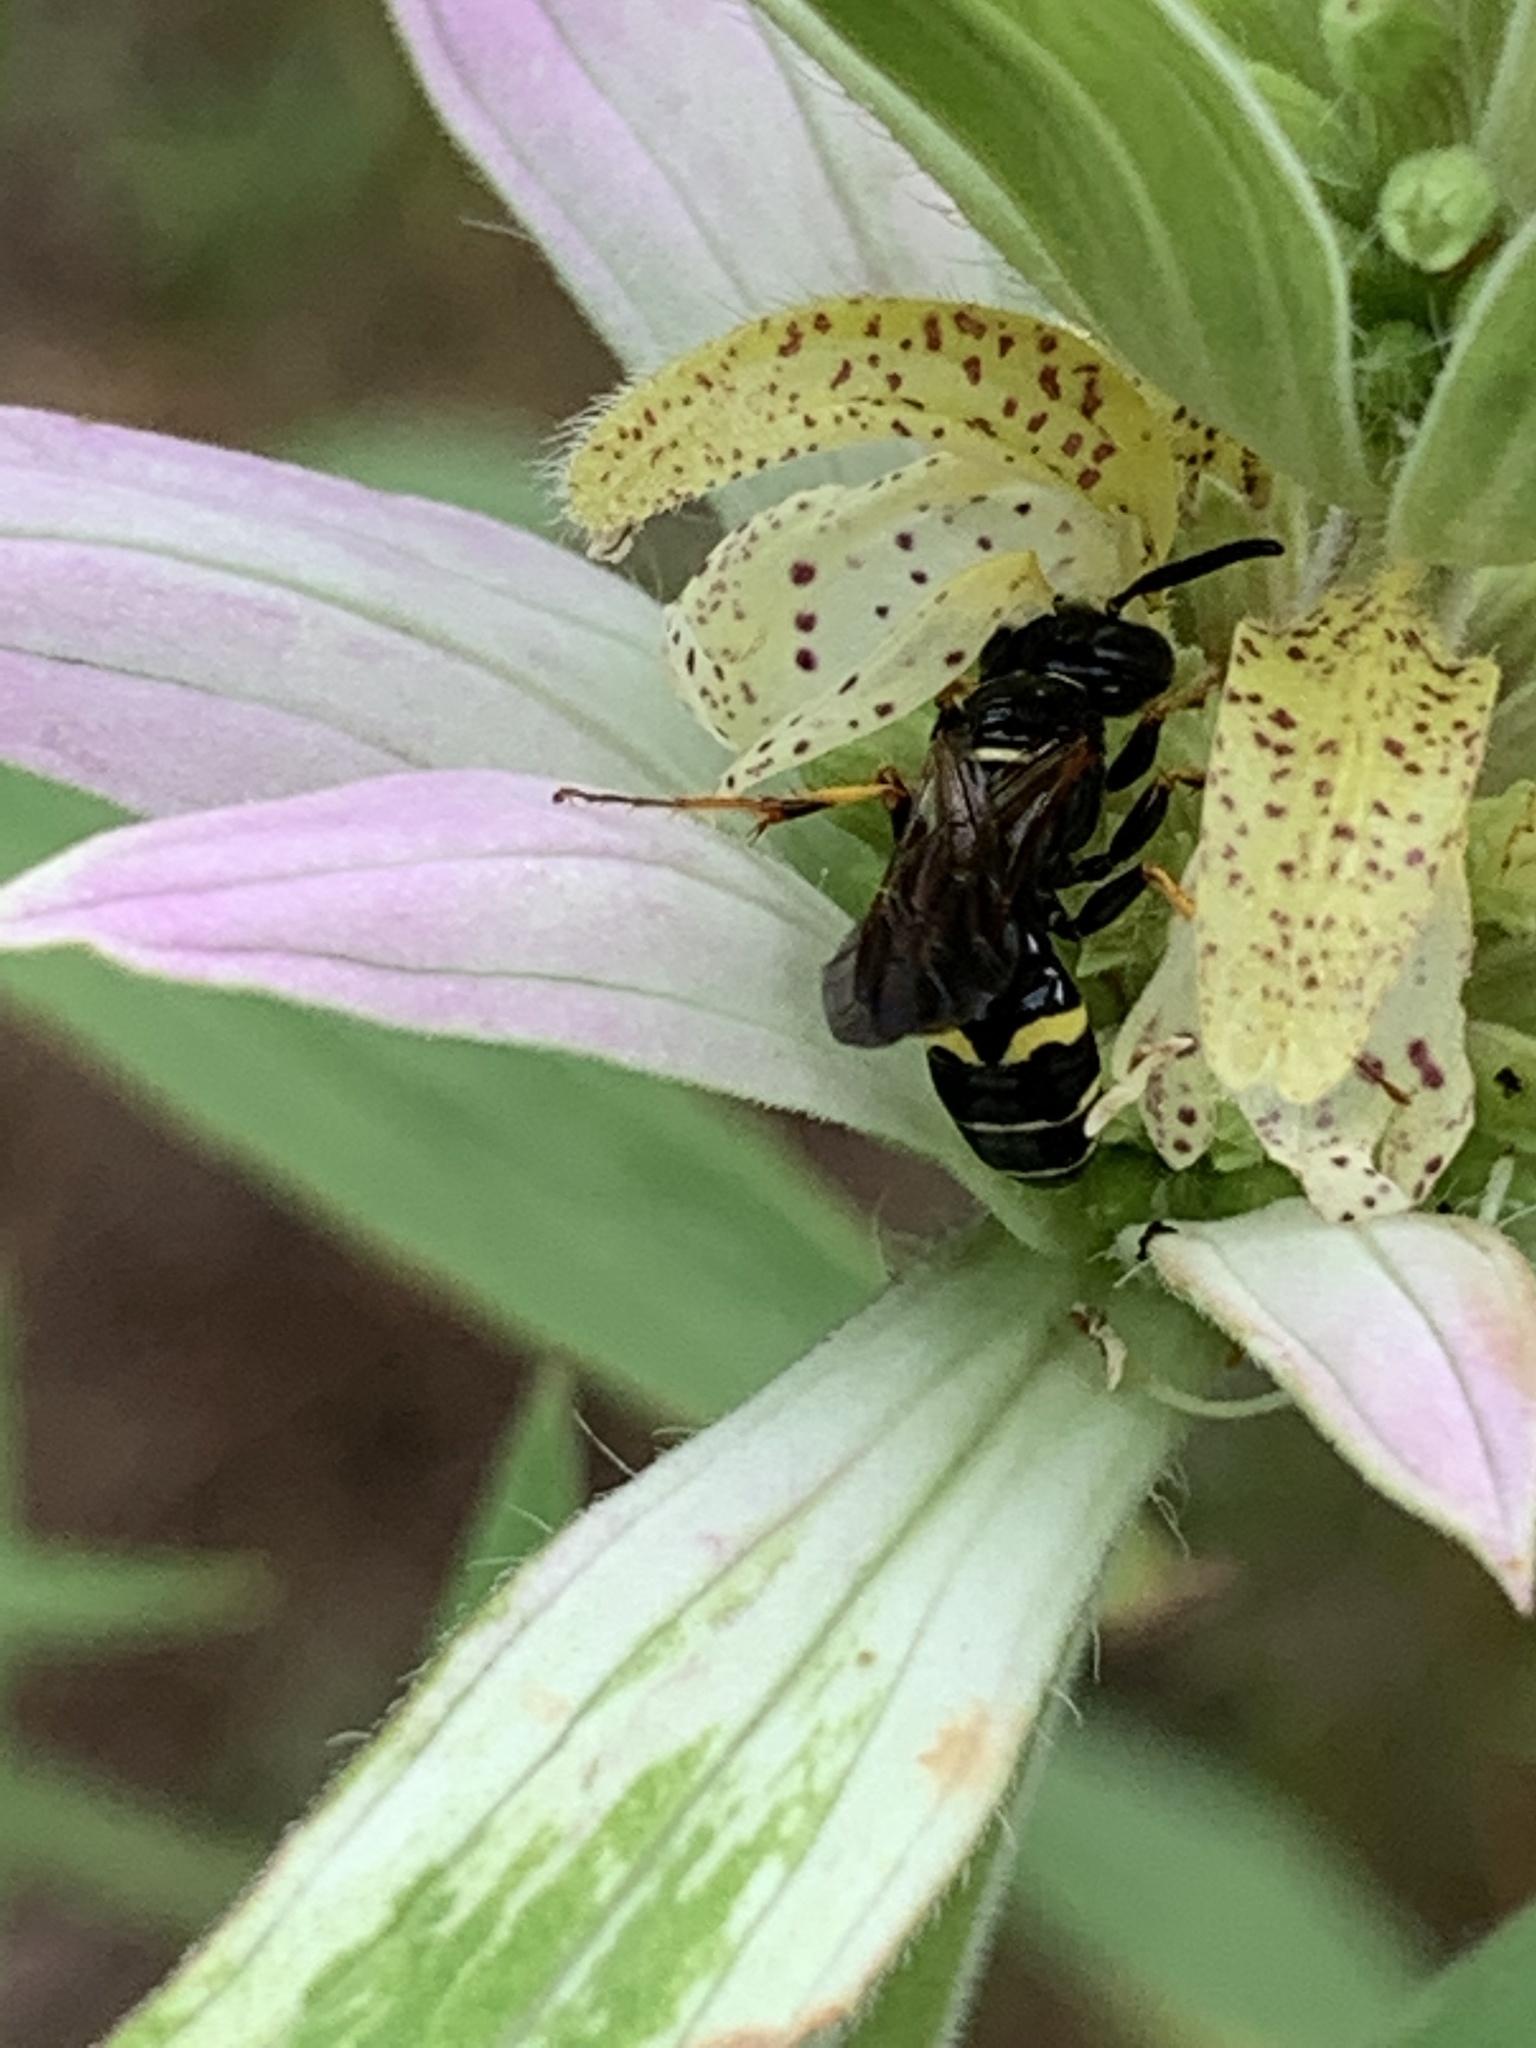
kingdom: Animalia
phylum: Arthropoda
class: Insecta
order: Hymenoptera
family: Crabronidae
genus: Philanthus
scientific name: Philanthus bilunatus
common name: Two moons beewolf
